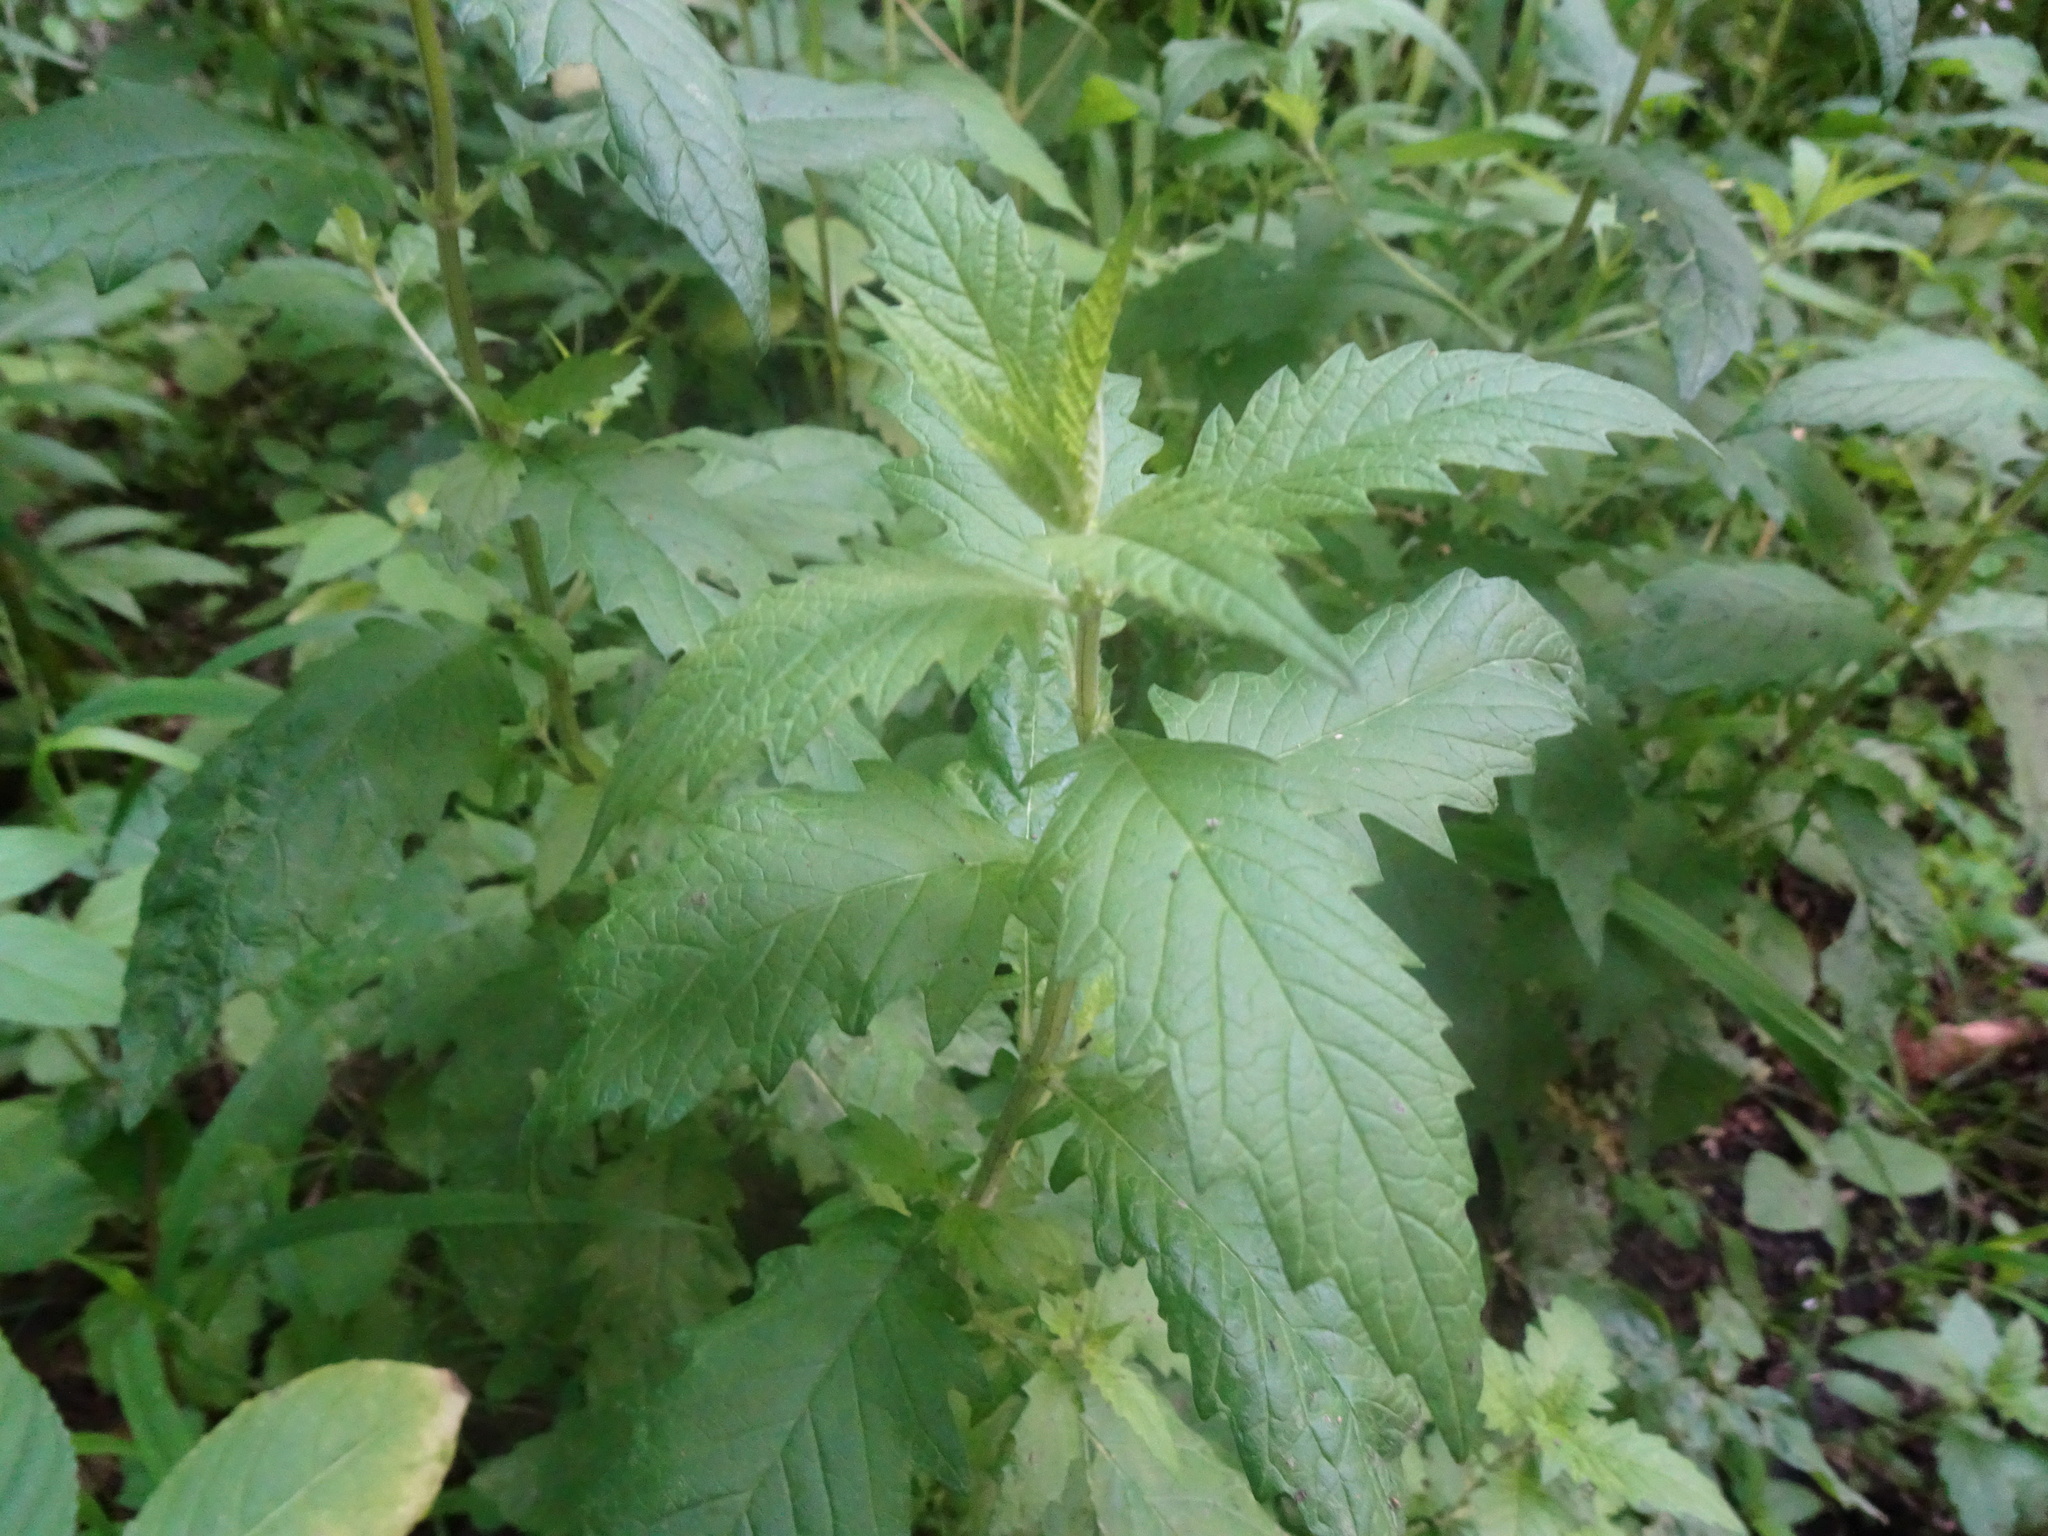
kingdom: Plantae
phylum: Tracheophyta
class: Magnoliopsida
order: Lamiales
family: Lamiaceae
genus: Lycopus
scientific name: Lycopus europaeus
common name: European bugleweed
